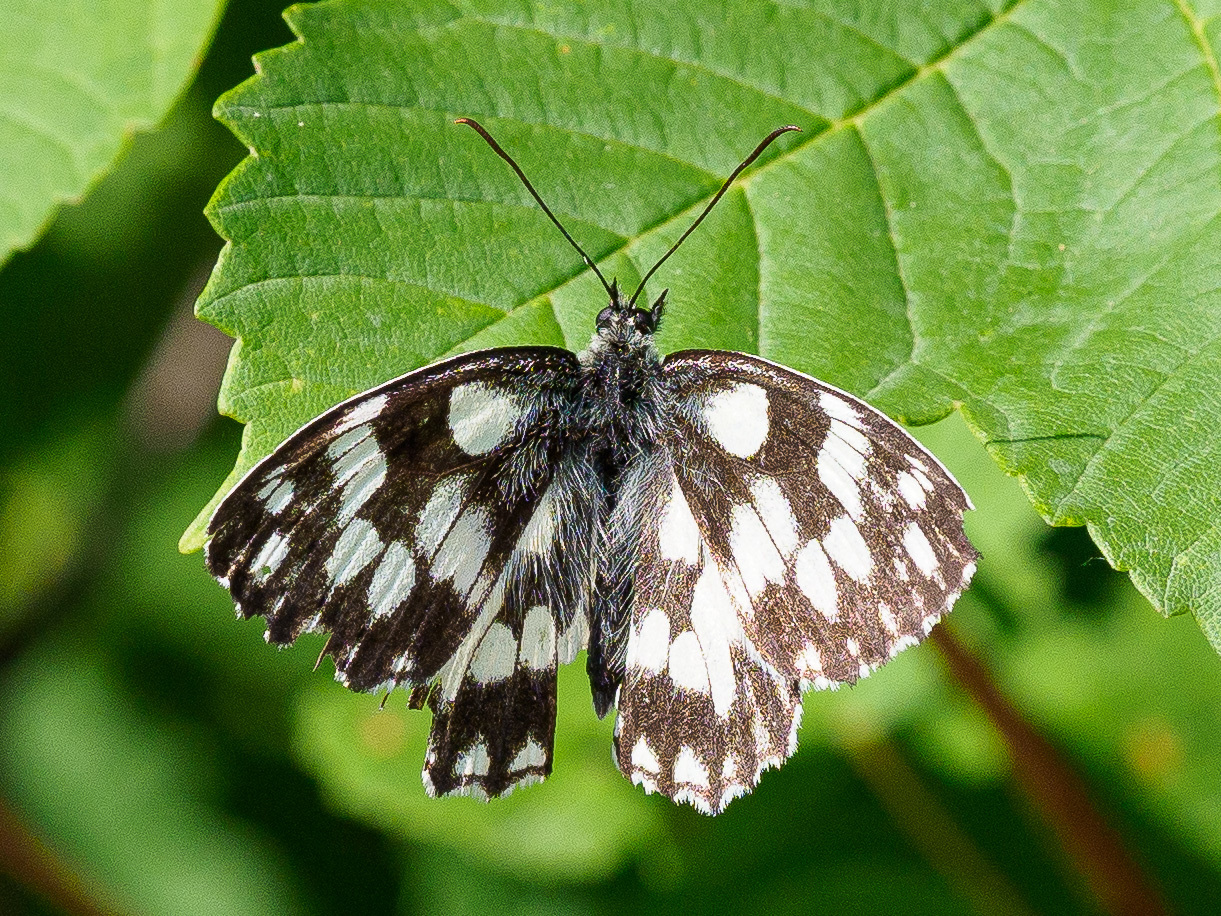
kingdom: Animalia
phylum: Arthropoda
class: Insecta
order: Lepidoptera
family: Nymphalidae
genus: Melanargia
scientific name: Melanargia galathea
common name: Marbled white
